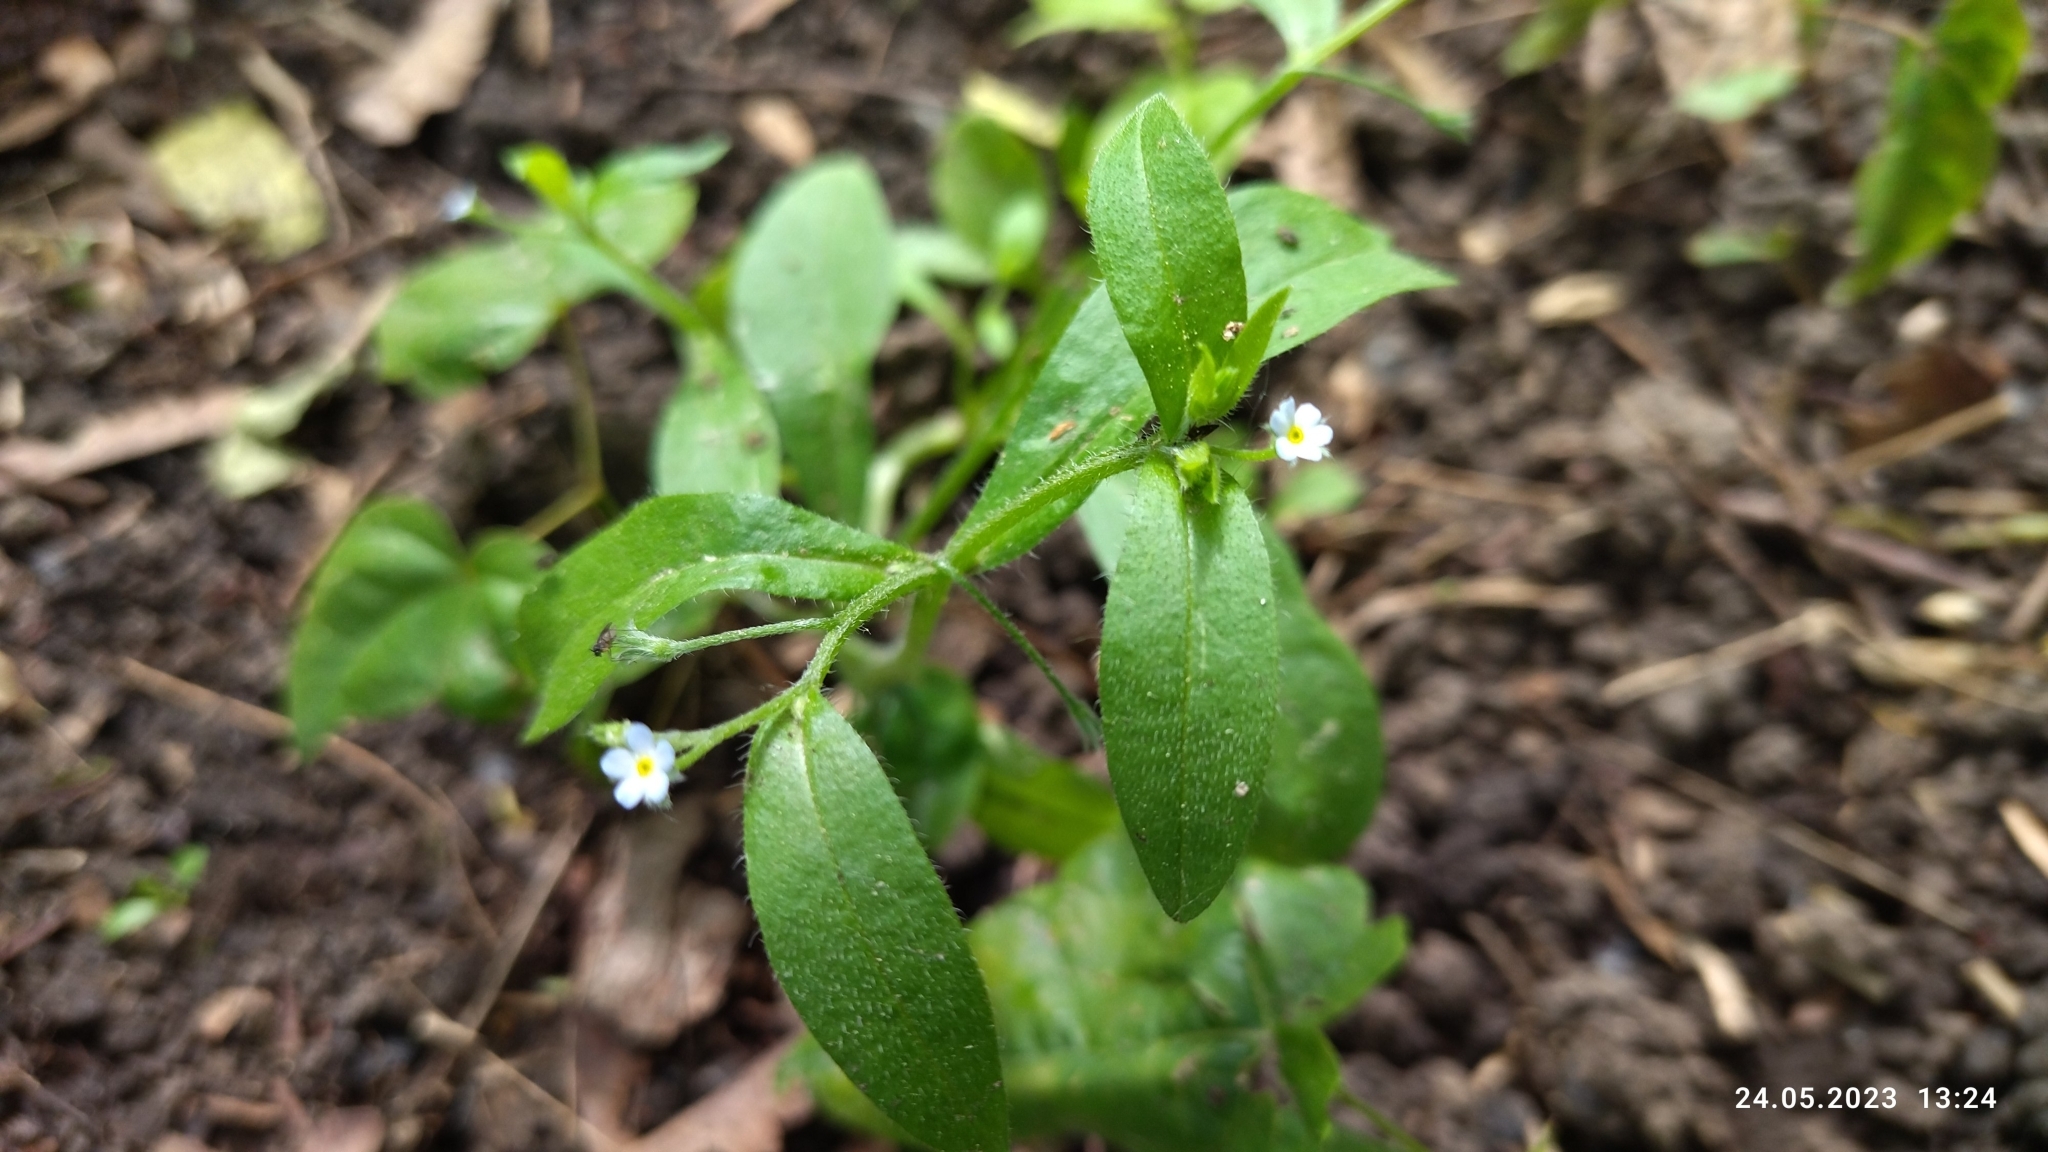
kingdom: Plantae
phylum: Tracheophyta
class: Magnoliopsida
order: Boraginales
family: Boraginaceae
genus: Myosotis
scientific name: Myosotis sparsiflora
